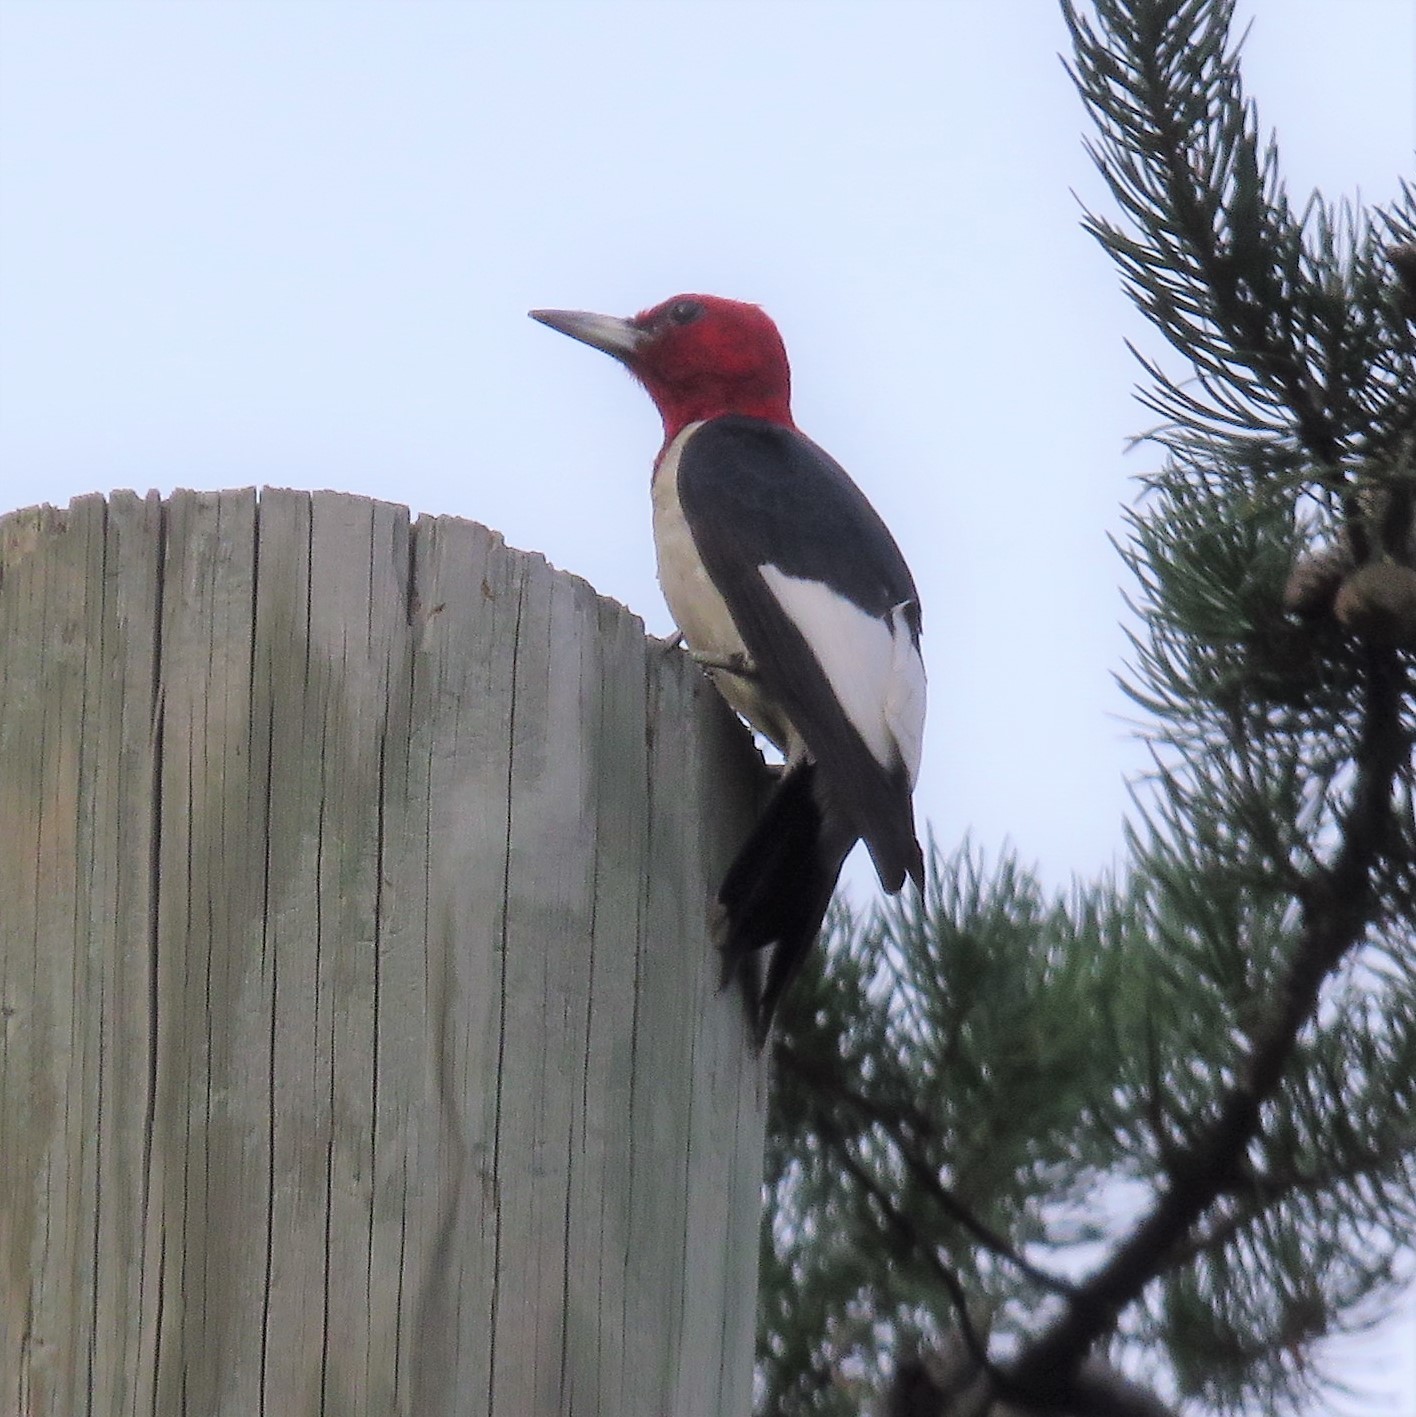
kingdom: Animalia
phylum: Chordata
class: Aves
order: Piciformes
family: Picidae
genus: Melanerpes
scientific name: Melanerpes erythrocephalus
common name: Red-headed woodpecker
